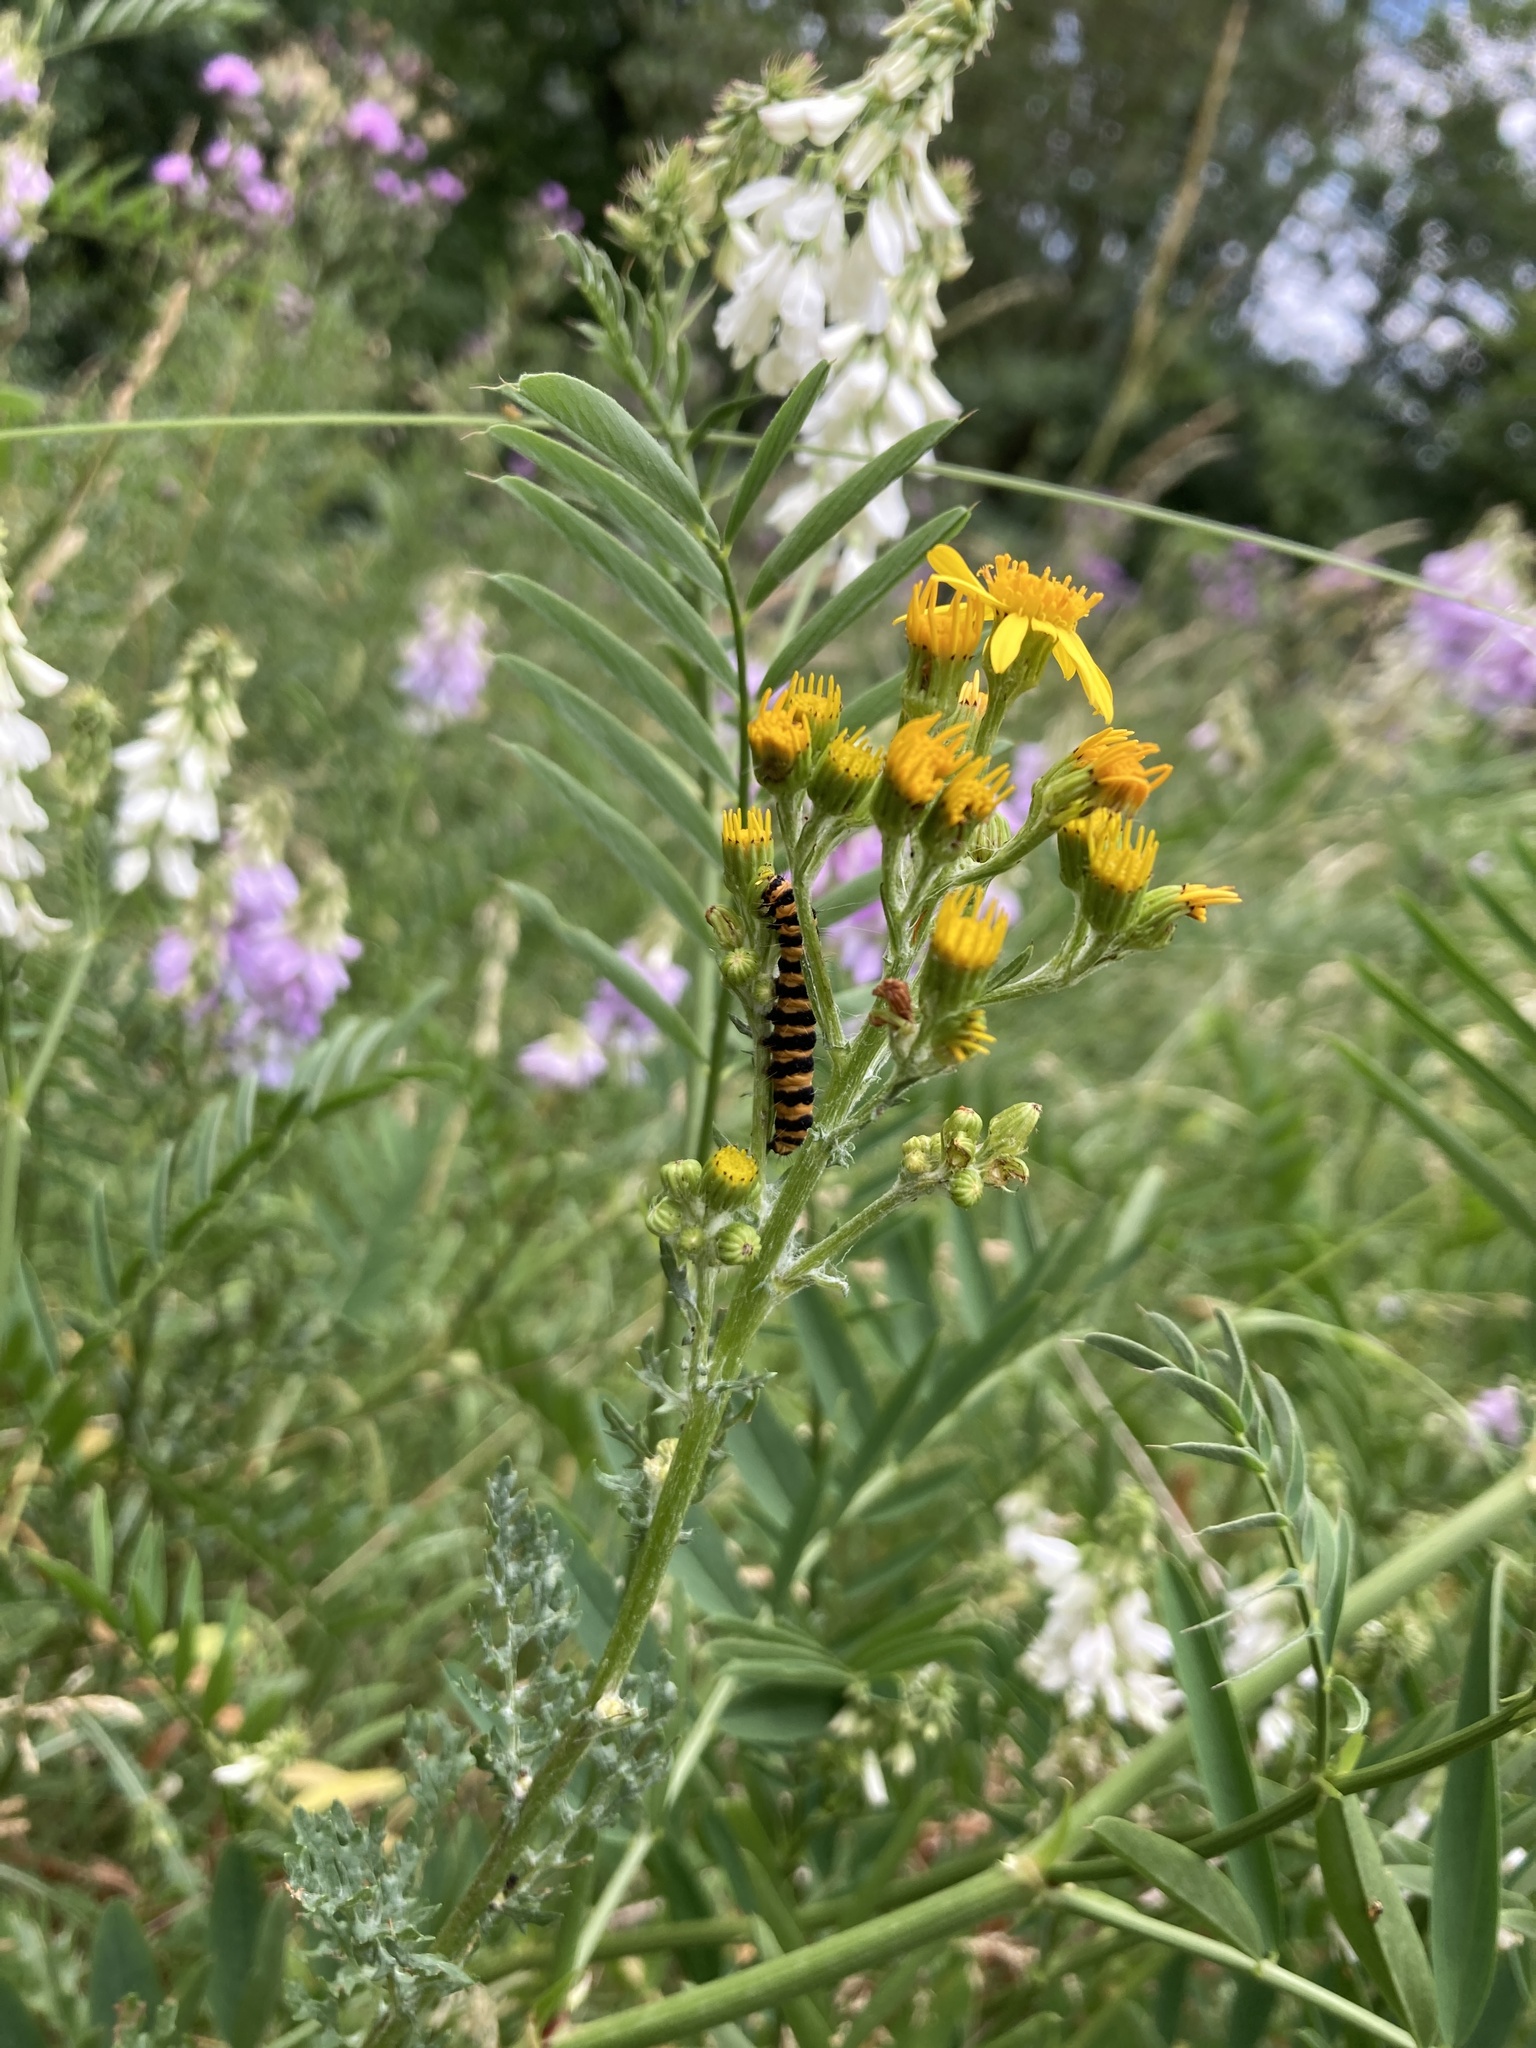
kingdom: Animalia
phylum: Arthropoda
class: Insecta
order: Lepidoptera
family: Erebidae
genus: Tyria
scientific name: Tyria jacobaeae
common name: Cinnabar
